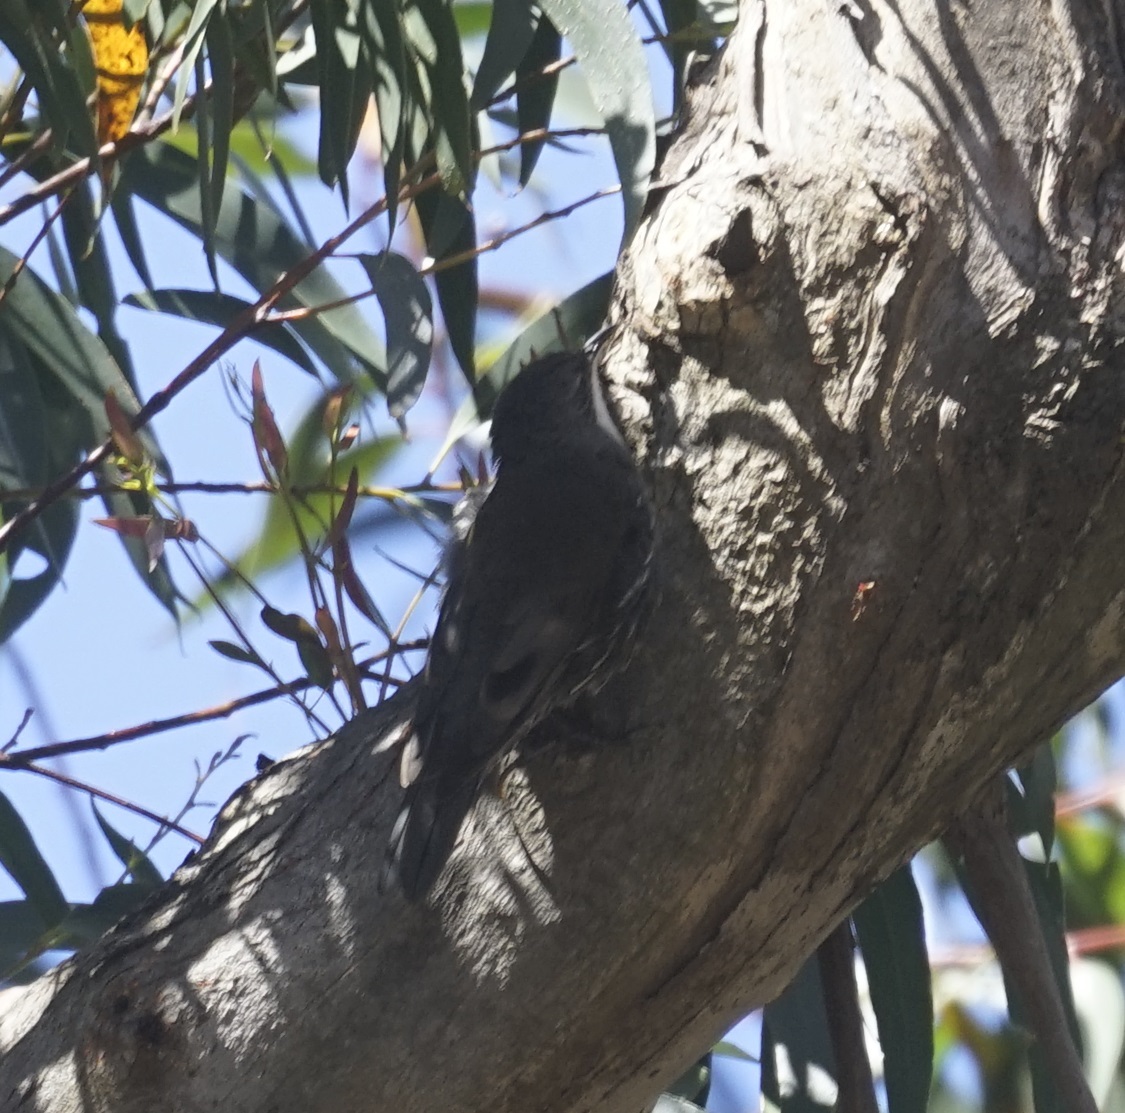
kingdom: Animalia
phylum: Chordata
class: Aves
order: Passeriformes
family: Climacteridae
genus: Cormobates
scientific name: Cormobates leucophaea
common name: White-throated treecreeper
